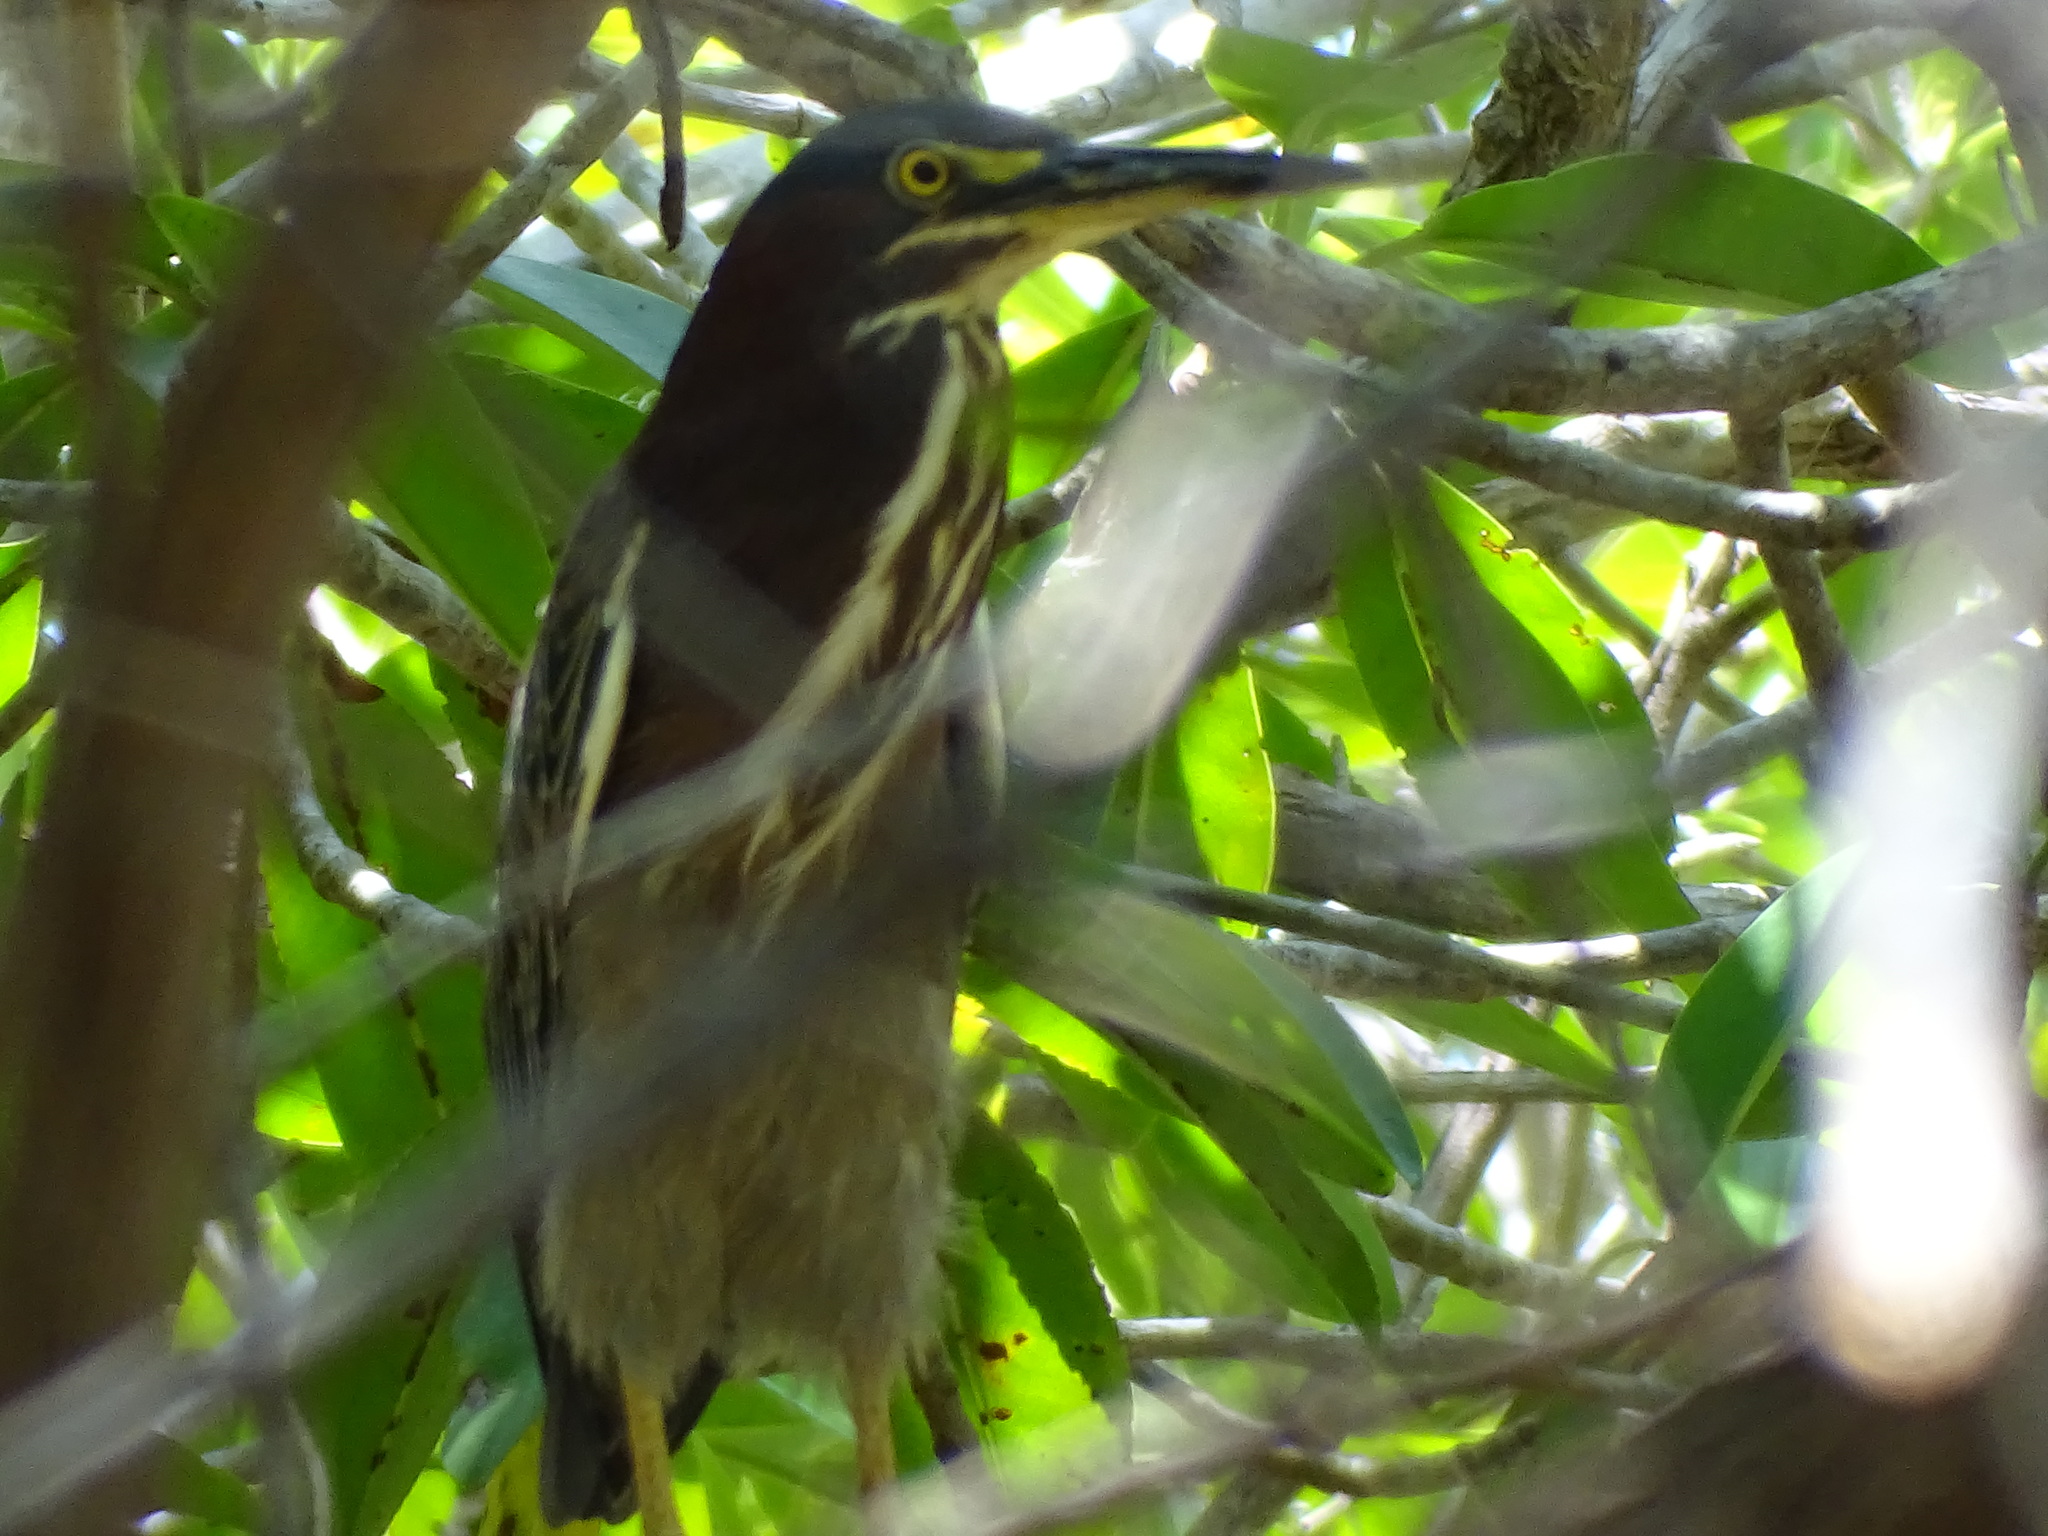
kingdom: Animalia
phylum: Chordata
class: Aves
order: Pelecaniformes
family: Ardeidae
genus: Butorides
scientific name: Butorides virescens
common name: Green heron
